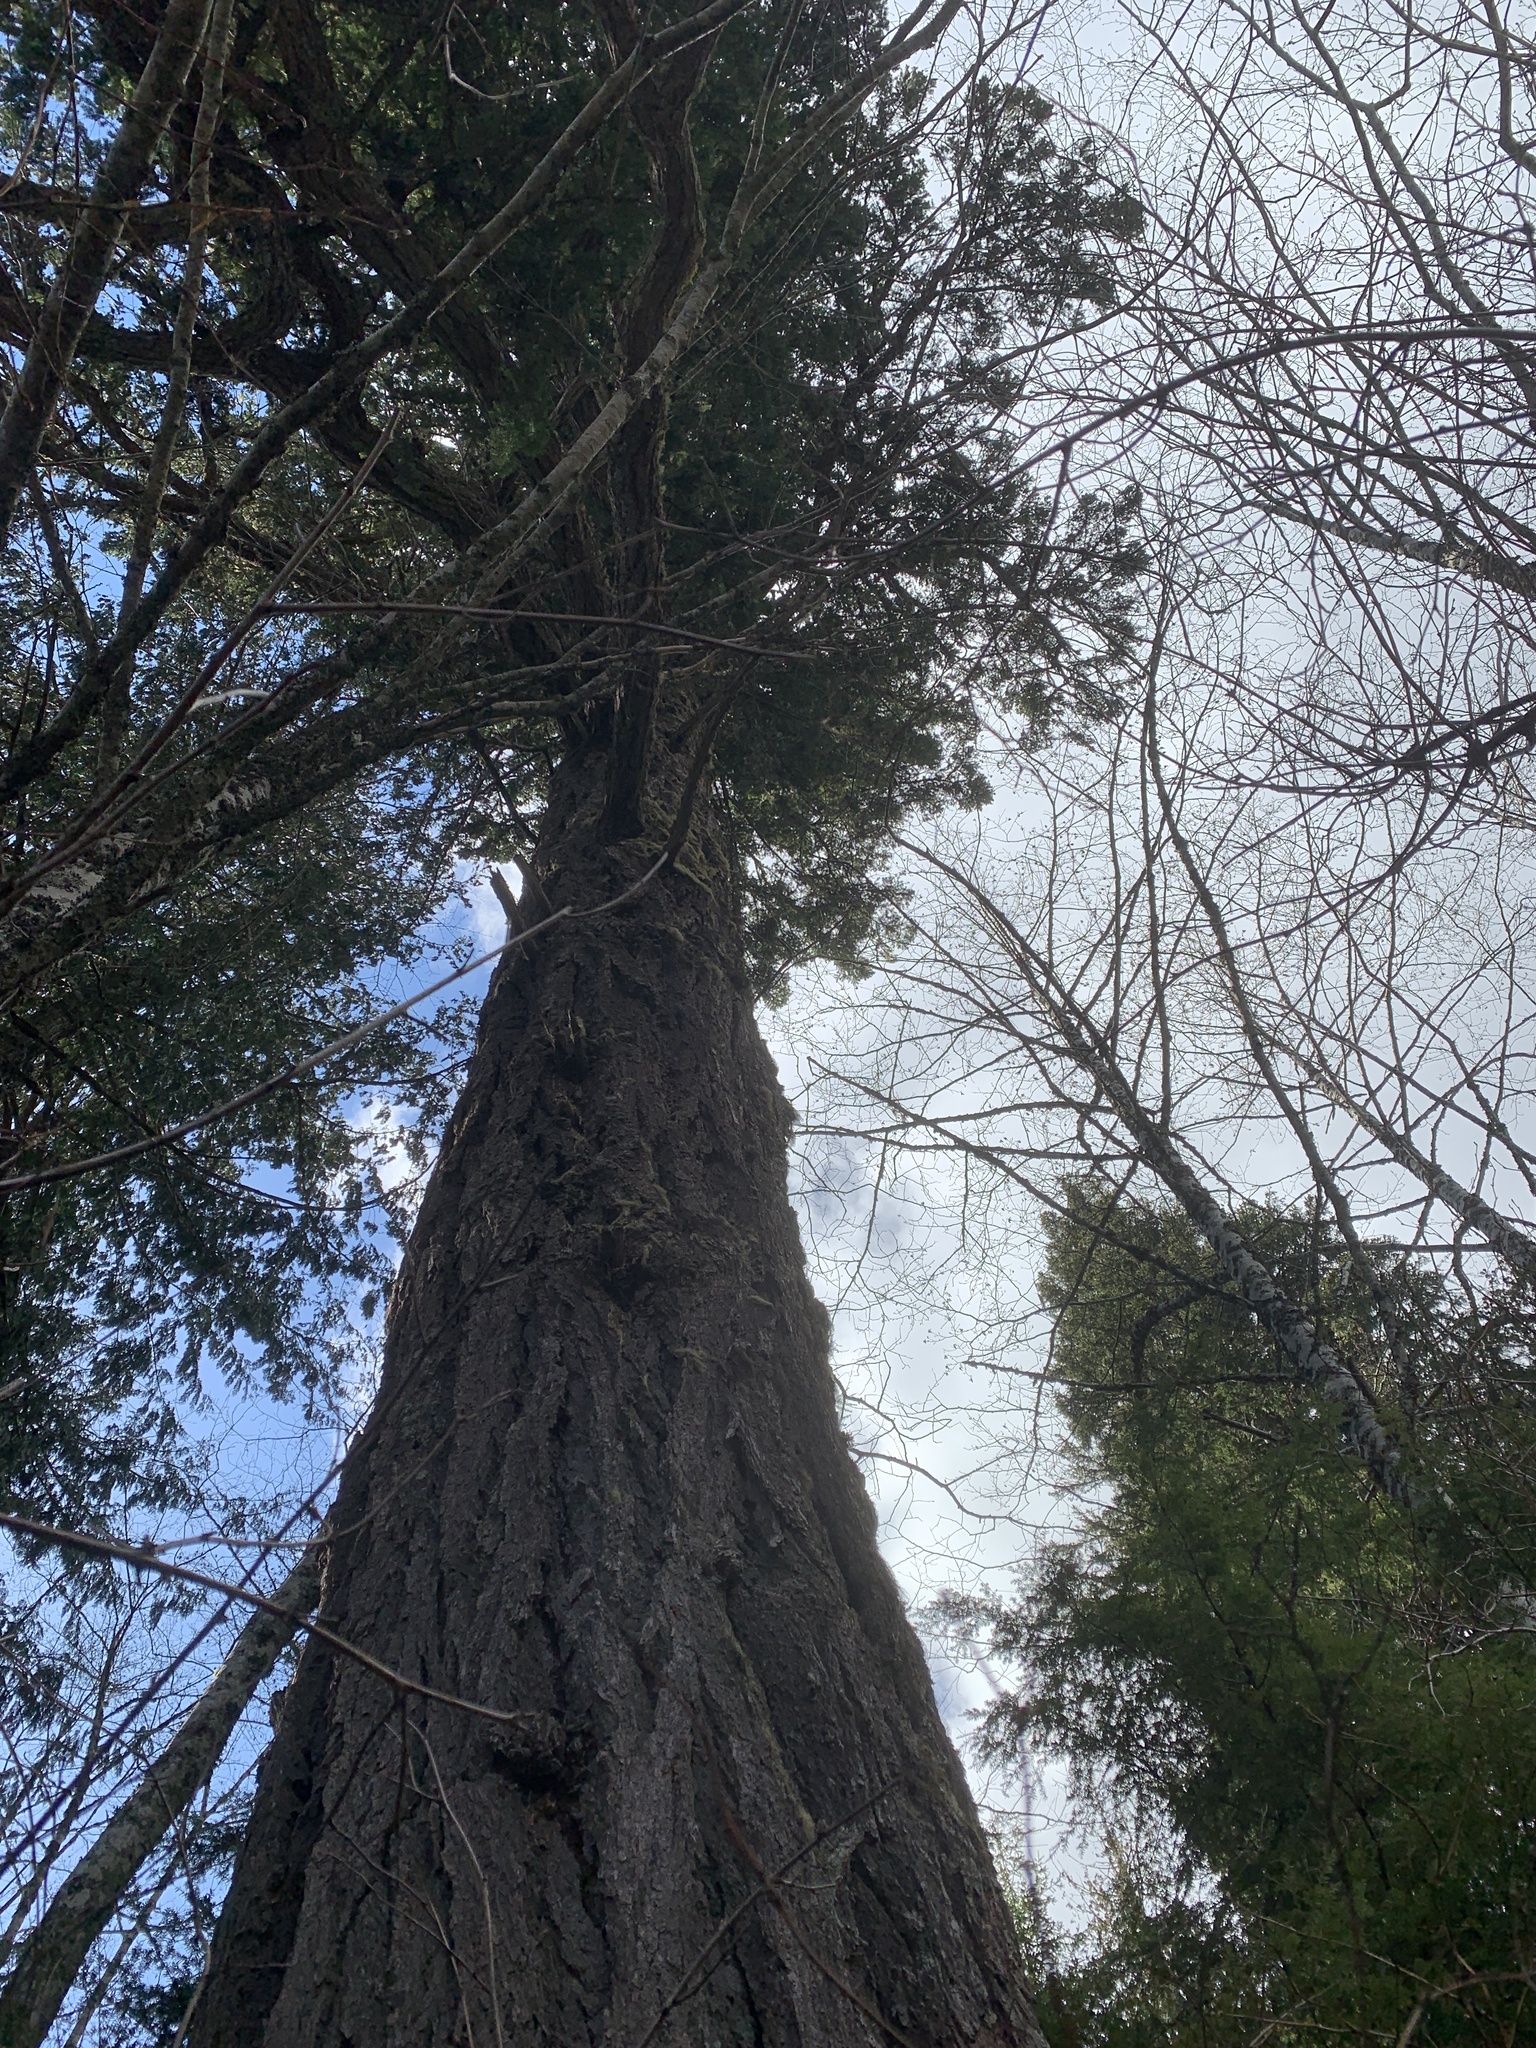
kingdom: Plantae
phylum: Tracheophyta
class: Pinopsida
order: Pinales
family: Pinaceae
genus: Pseudotsuga
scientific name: Pseudotsuga menziesii
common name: Douglas fir
